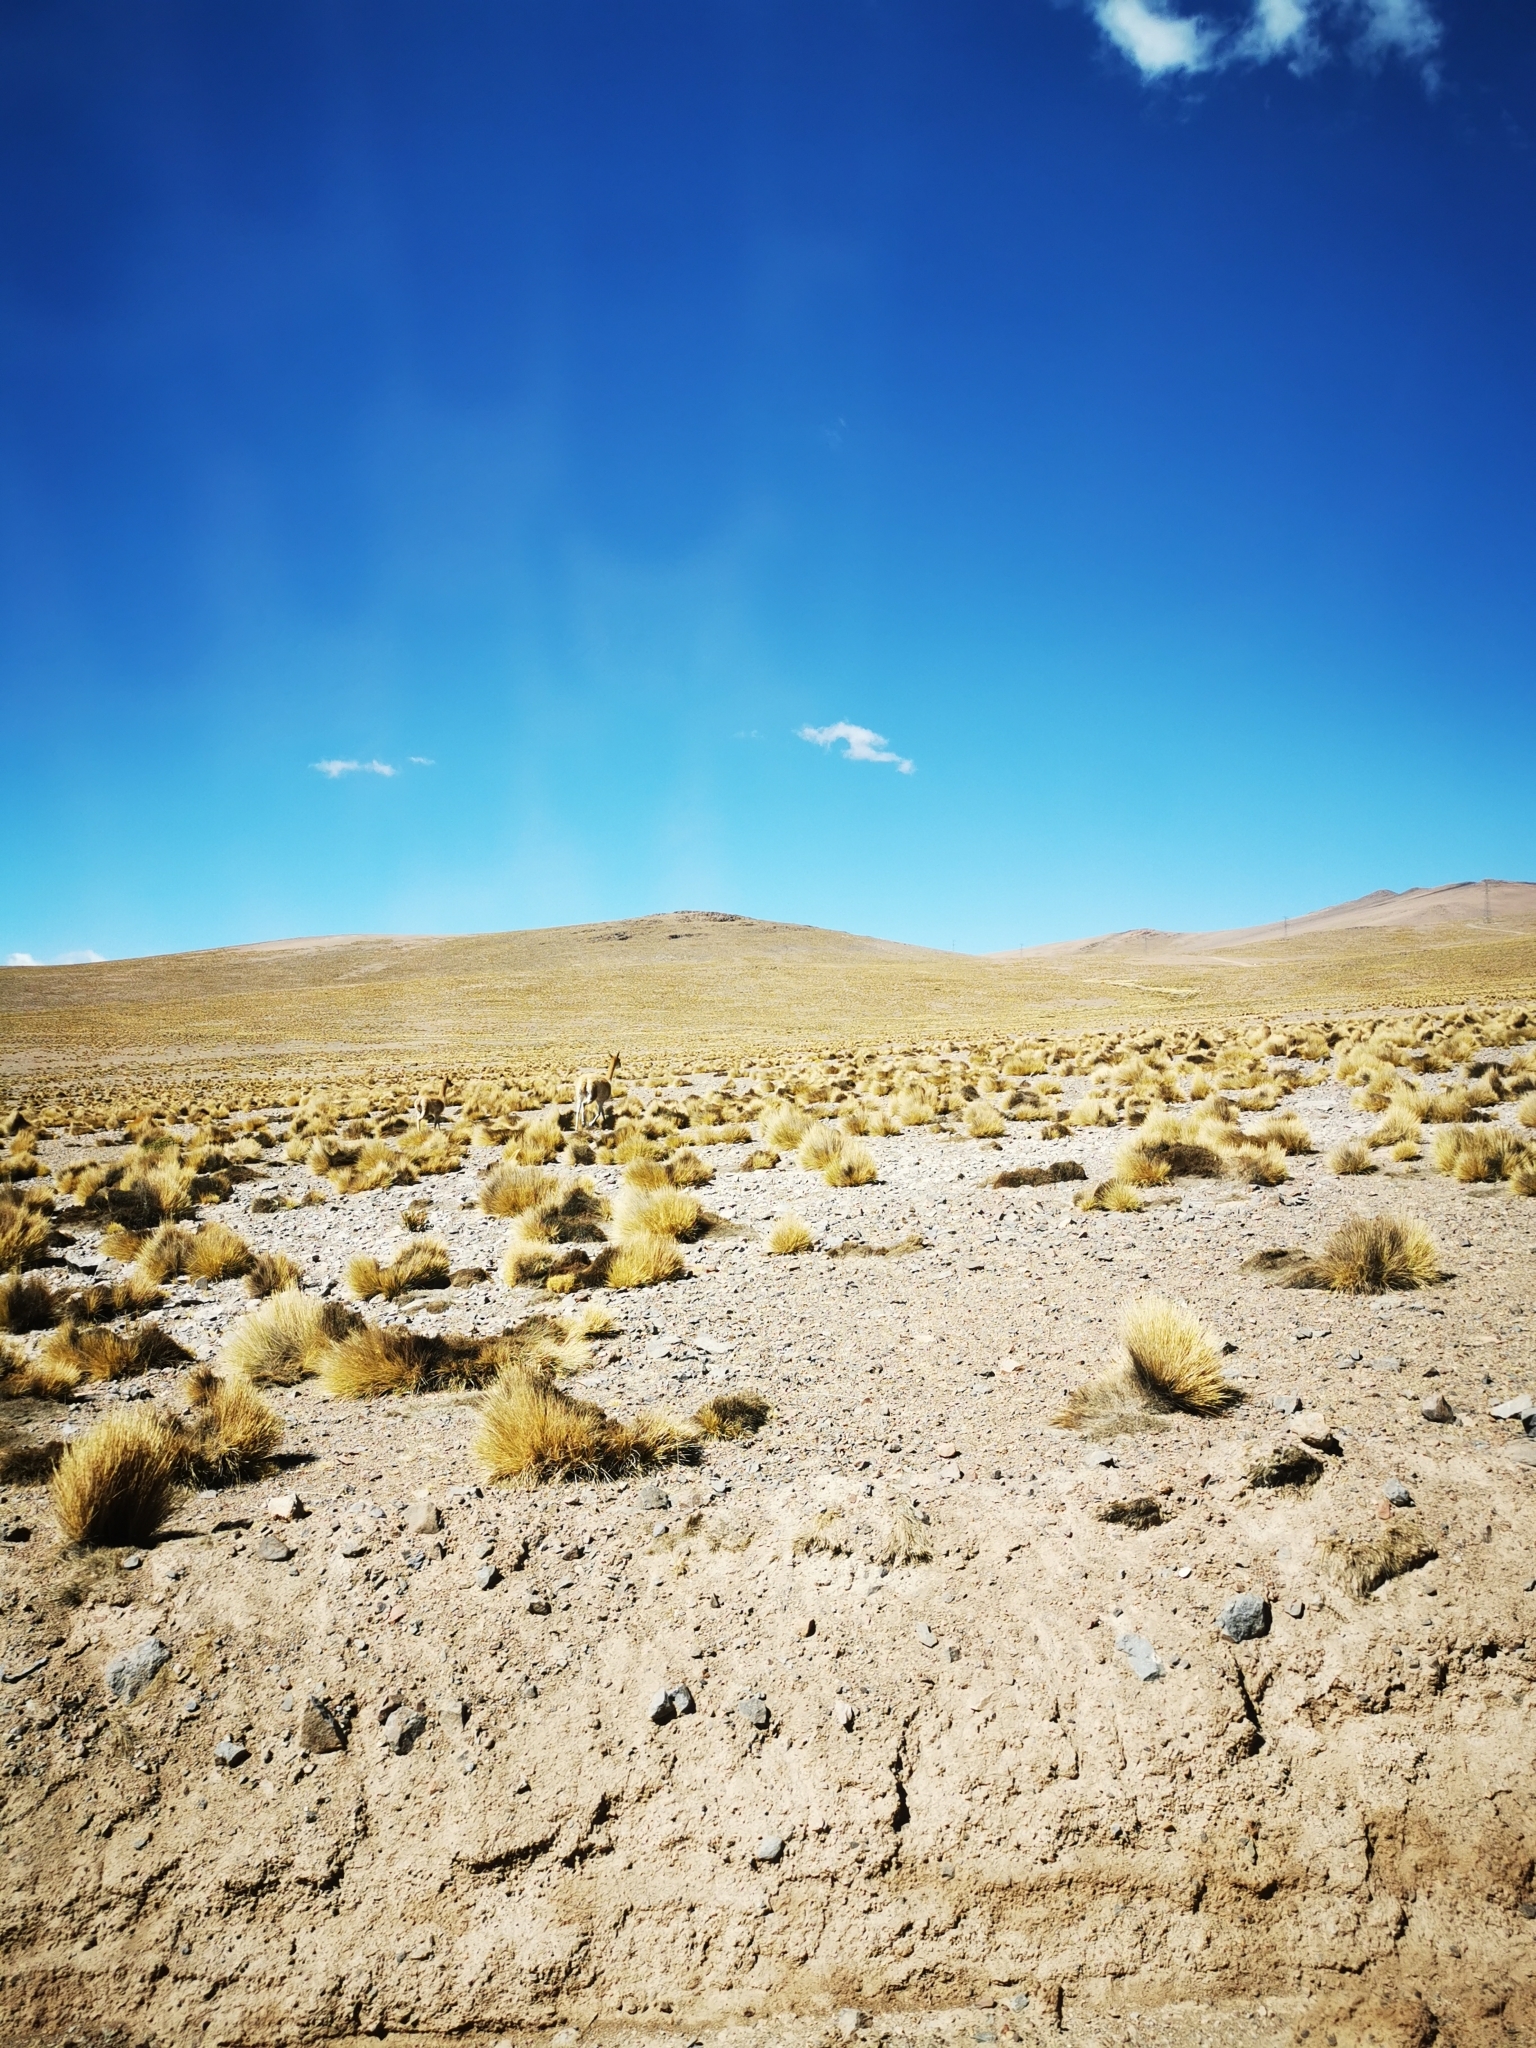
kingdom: Animalia
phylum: Chordata
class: Mammalia
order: Artiodactyla
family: Camelidae
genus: Vicugna
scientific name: Vicugna vicugna
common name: Vicugna
